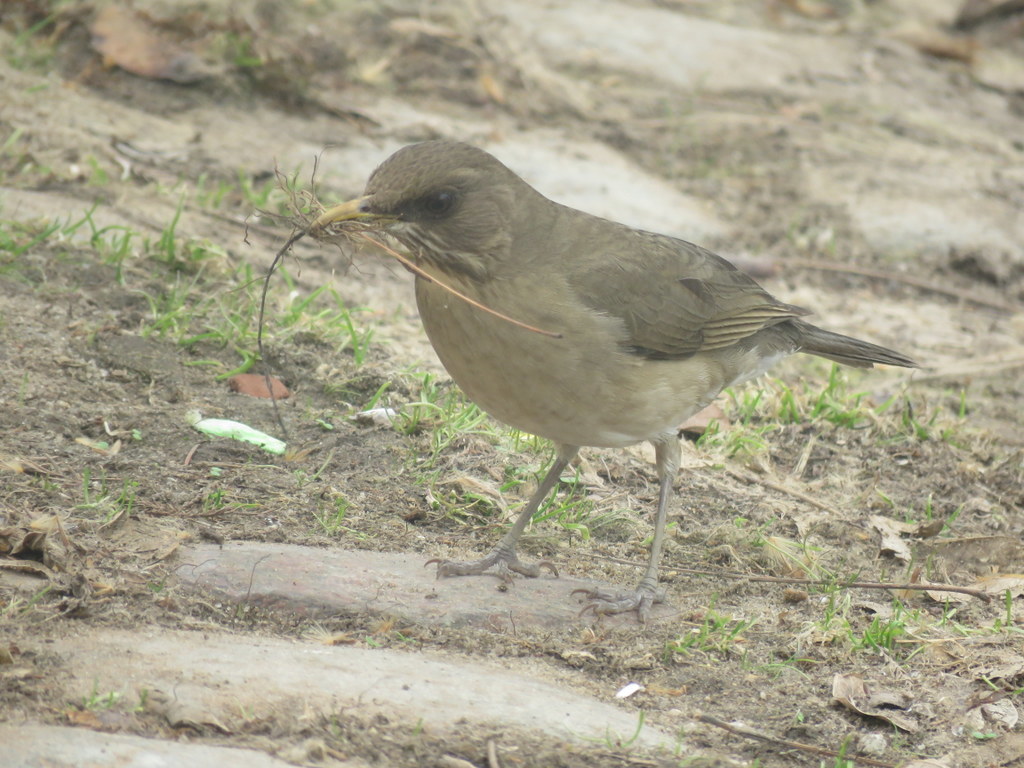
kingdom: Animalia
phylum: Chordata
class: Aves
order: Passeriformes
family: Turdidae
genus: Turdus
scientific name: Turdus amaurochalinus
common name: Creamy-bellied thrush
